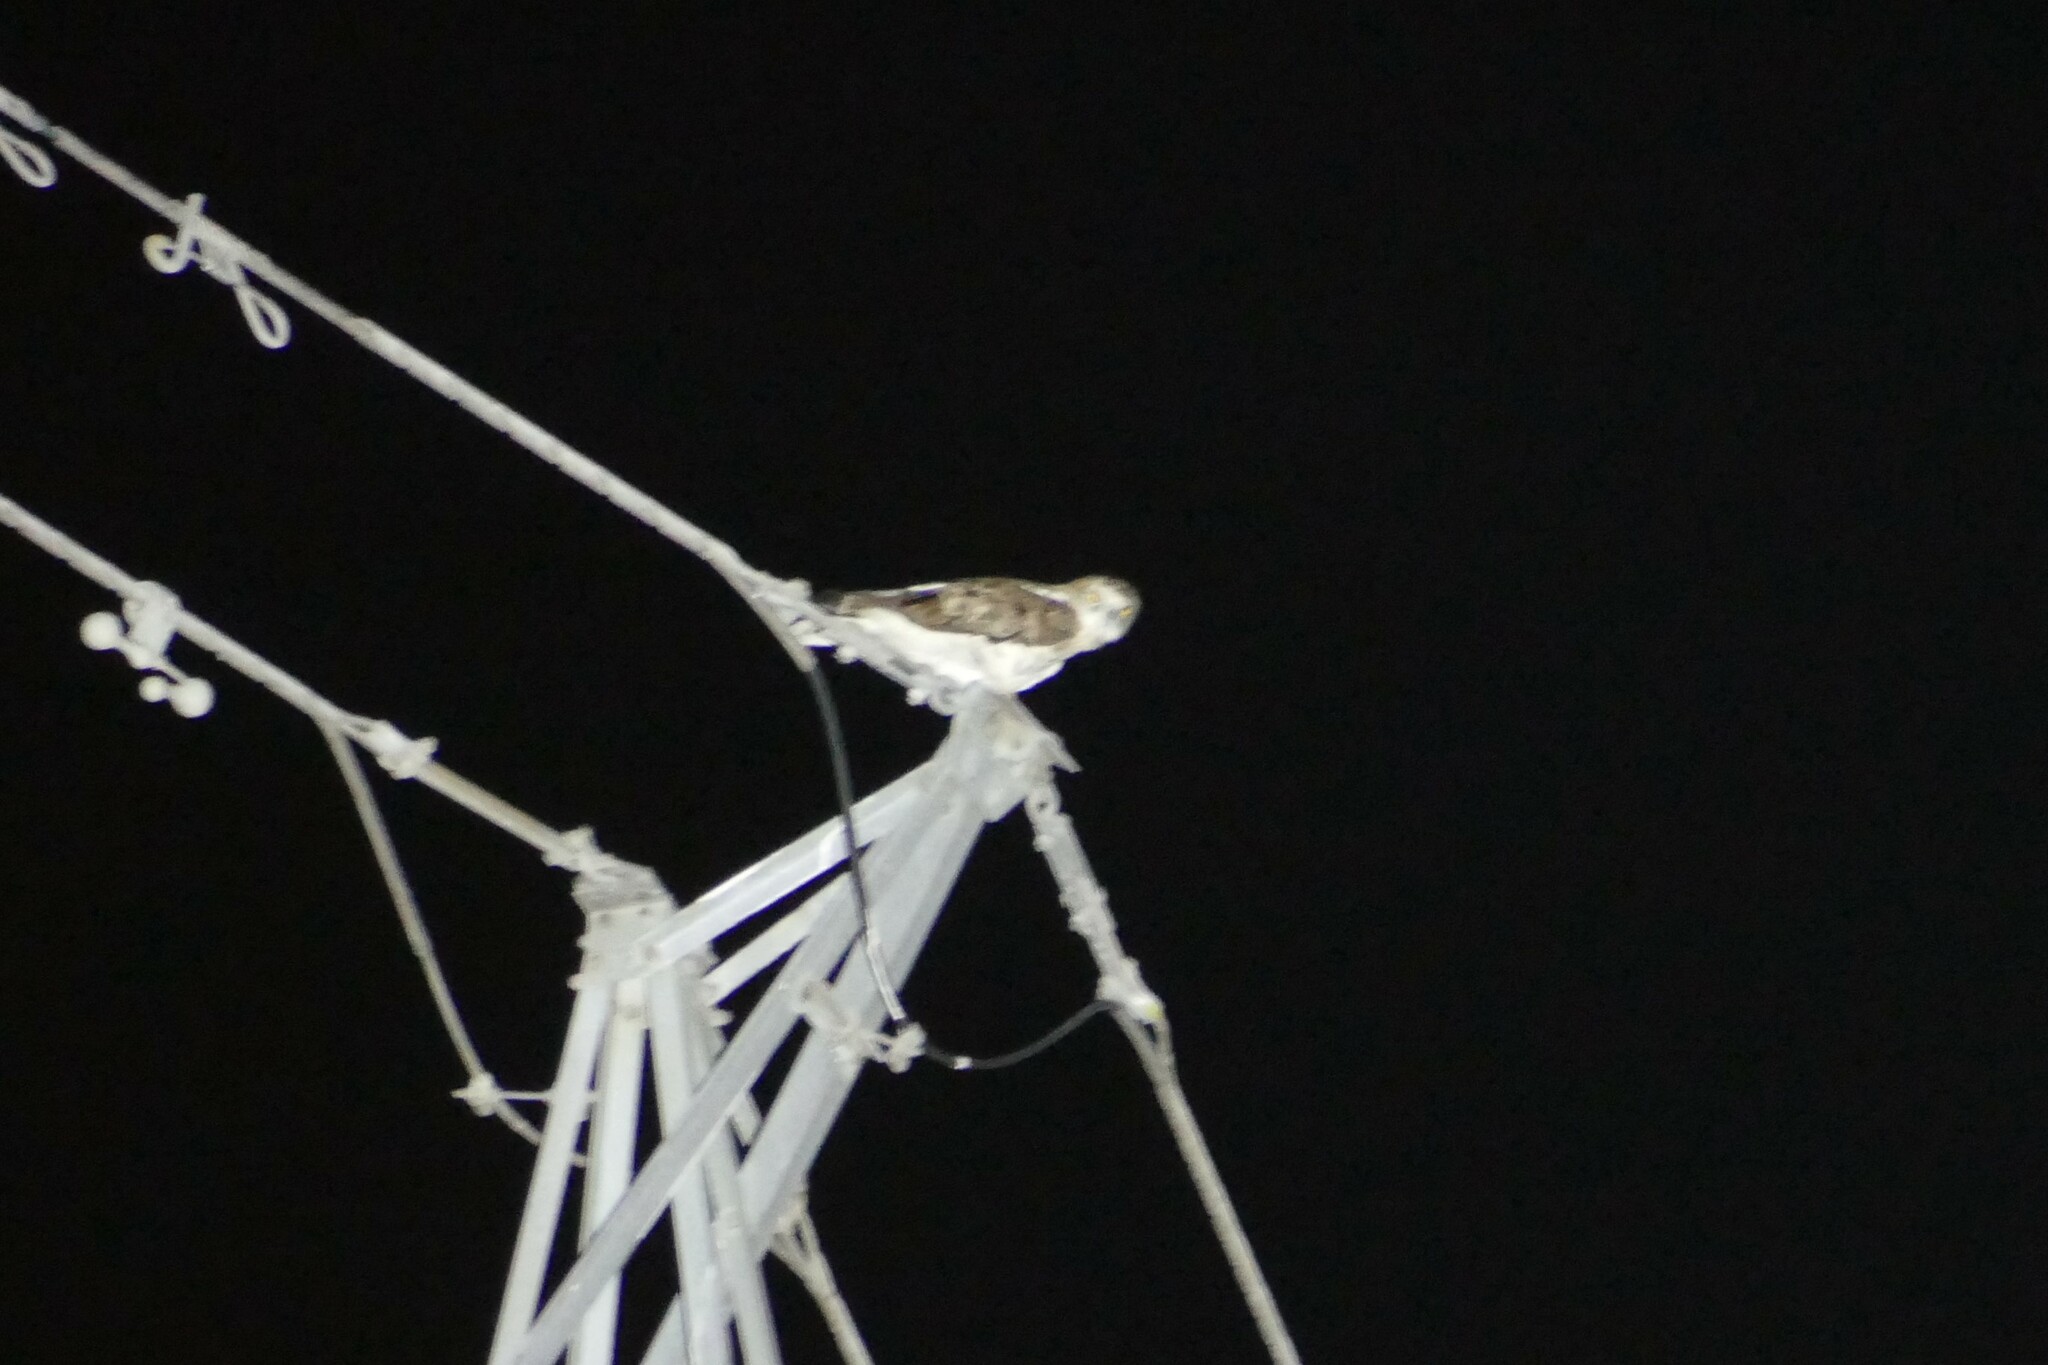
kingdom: Animalia
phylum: Chordata
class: Aves
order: Accipitriformes
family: Accipitridae
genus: Circaetus
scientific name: Circaetus gallicus
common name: Short-toed snake eagle
